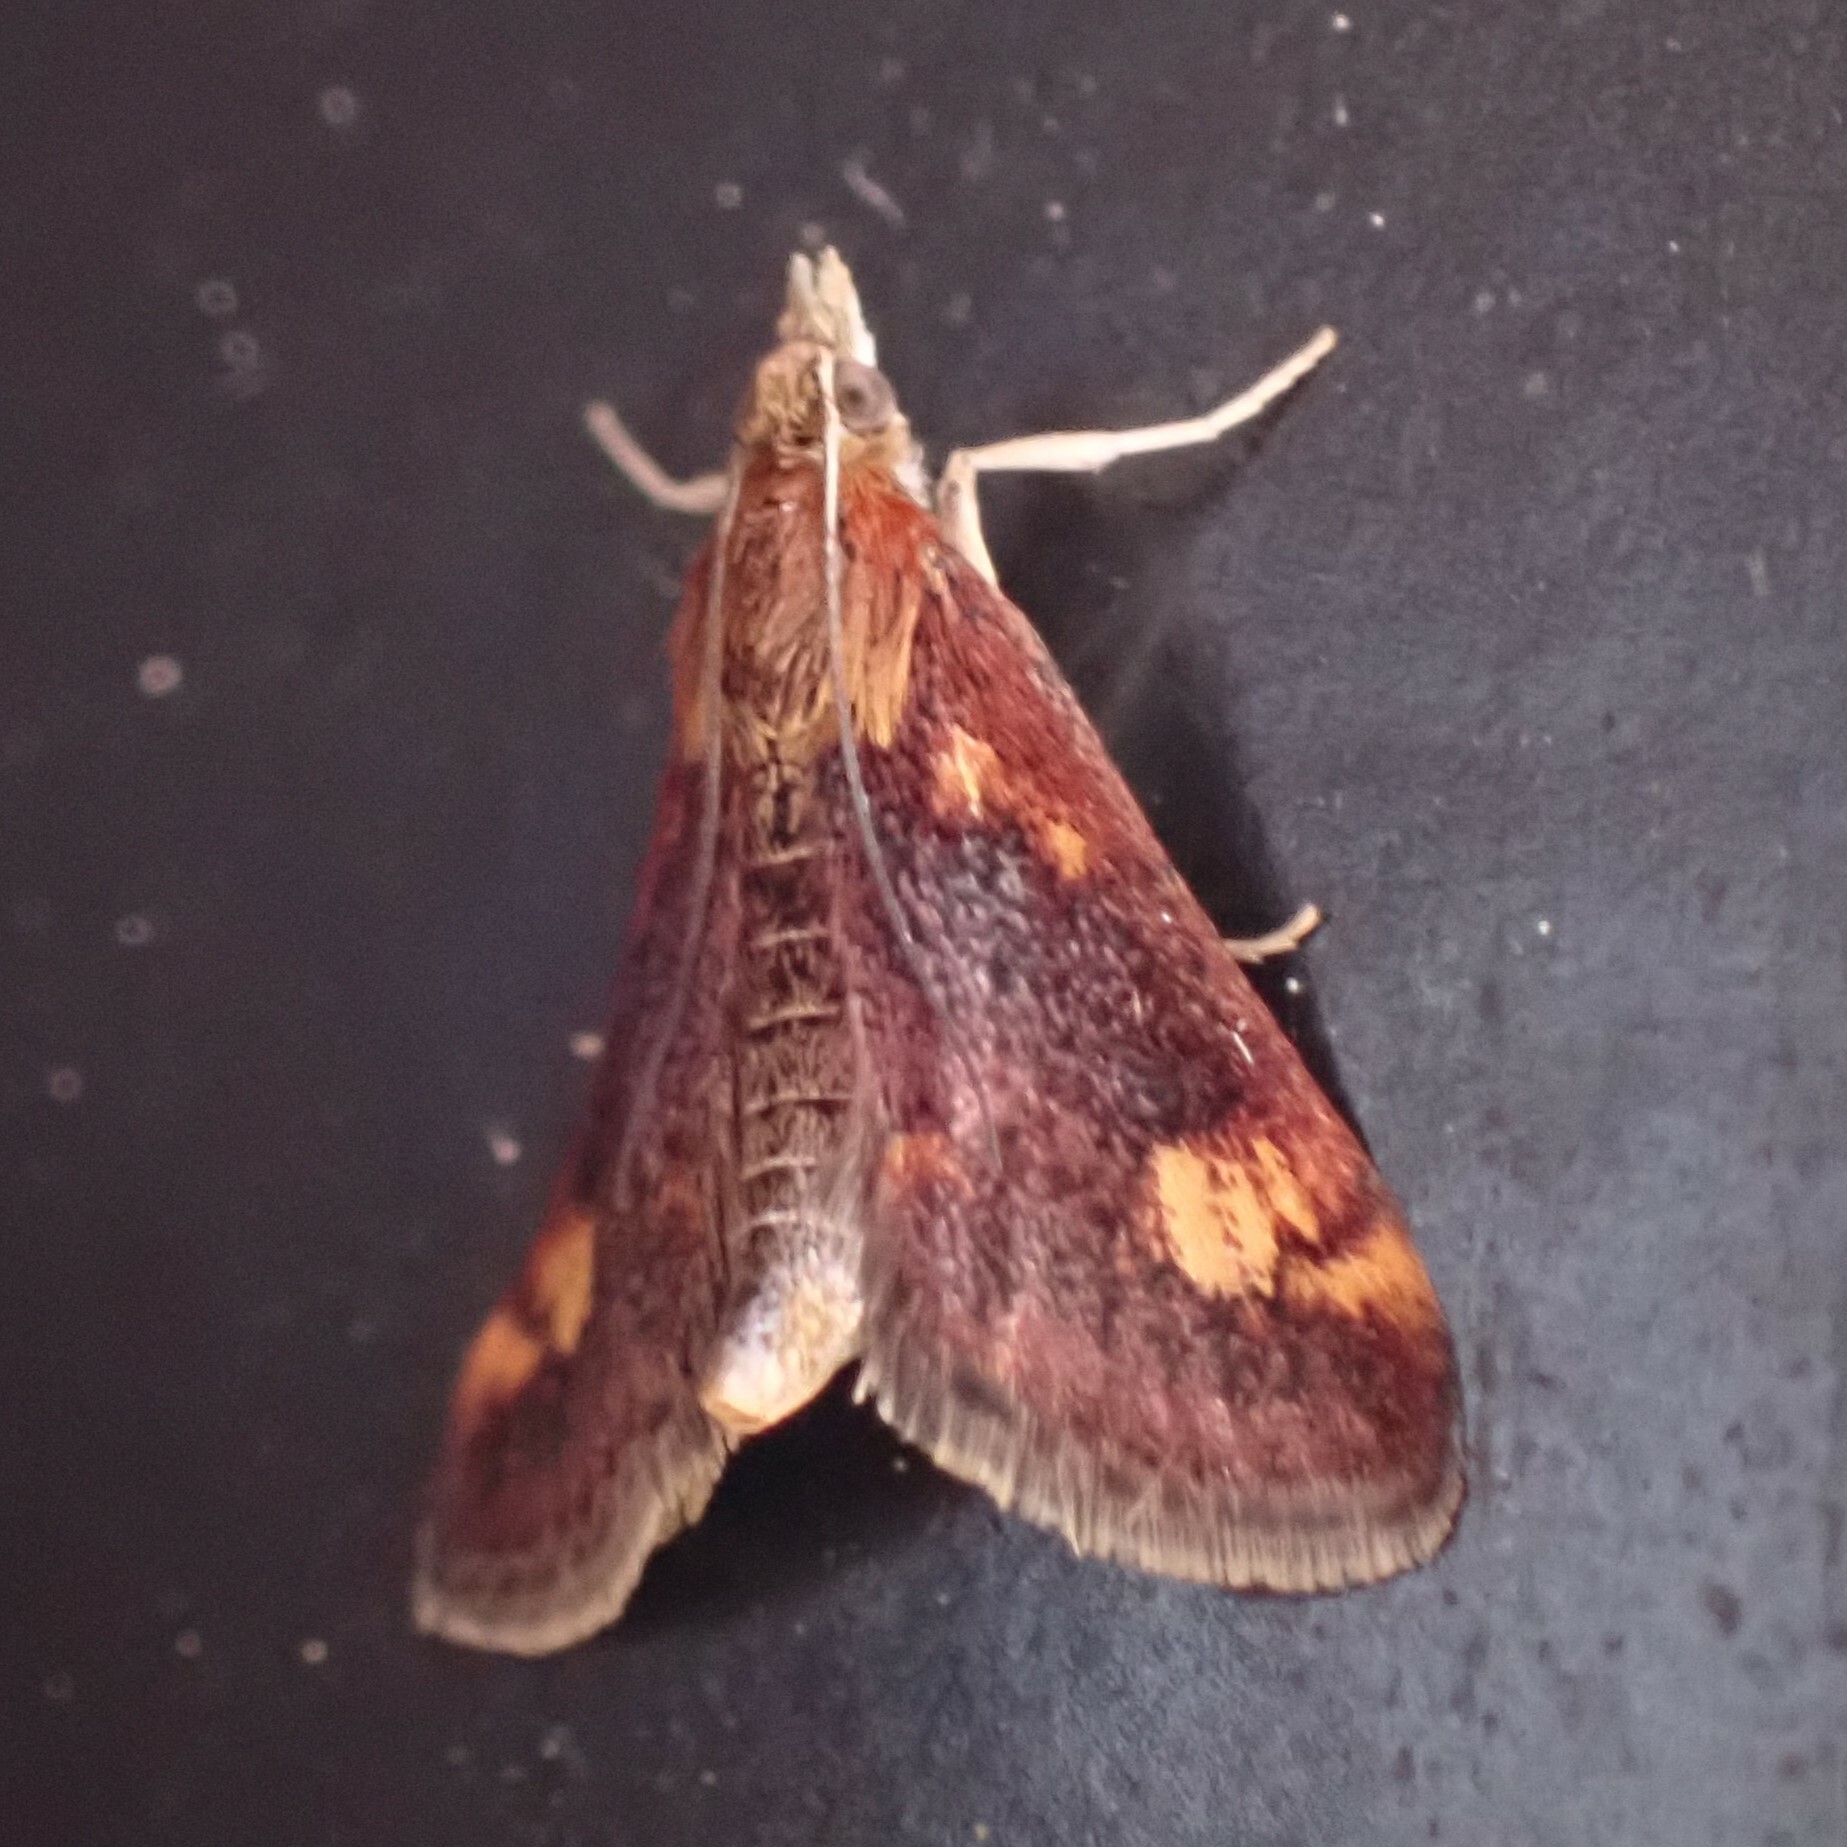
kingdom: Animalia
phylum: Arthropoda
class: Insecta
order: Lepidoptera
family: Crambidae
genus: Pyrausta
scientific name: Pyrausta orphisalis
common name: Orange mint moth
